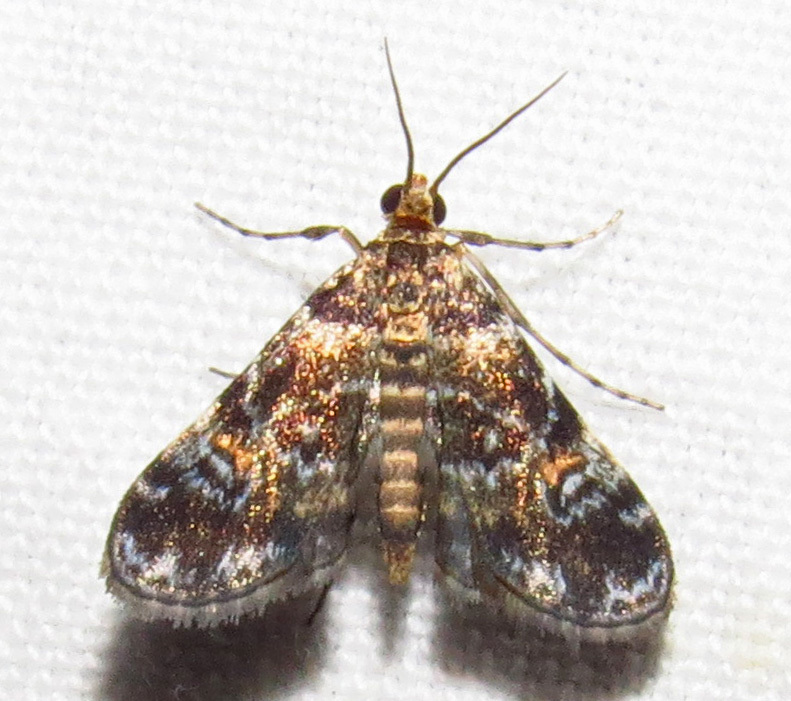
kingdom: Animalia
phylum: Arthropoda
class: Insecta
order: Lepidoptera
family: Crambidae
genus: Elophila
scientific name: Elophila obliteralis
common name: Waterlily leafcutter moth
